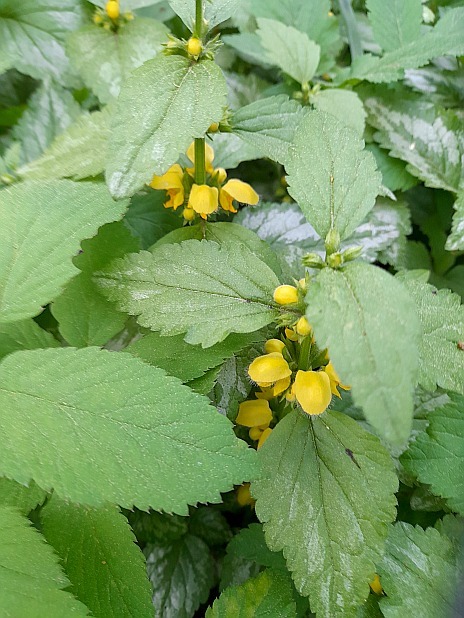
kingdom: Plantae
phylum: Tracheophyta
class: Magnoliopsida
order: Lamiales
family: Lamiaceae
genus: Lamium
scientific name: Lamium galeobdolon
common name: Yellow archangel
